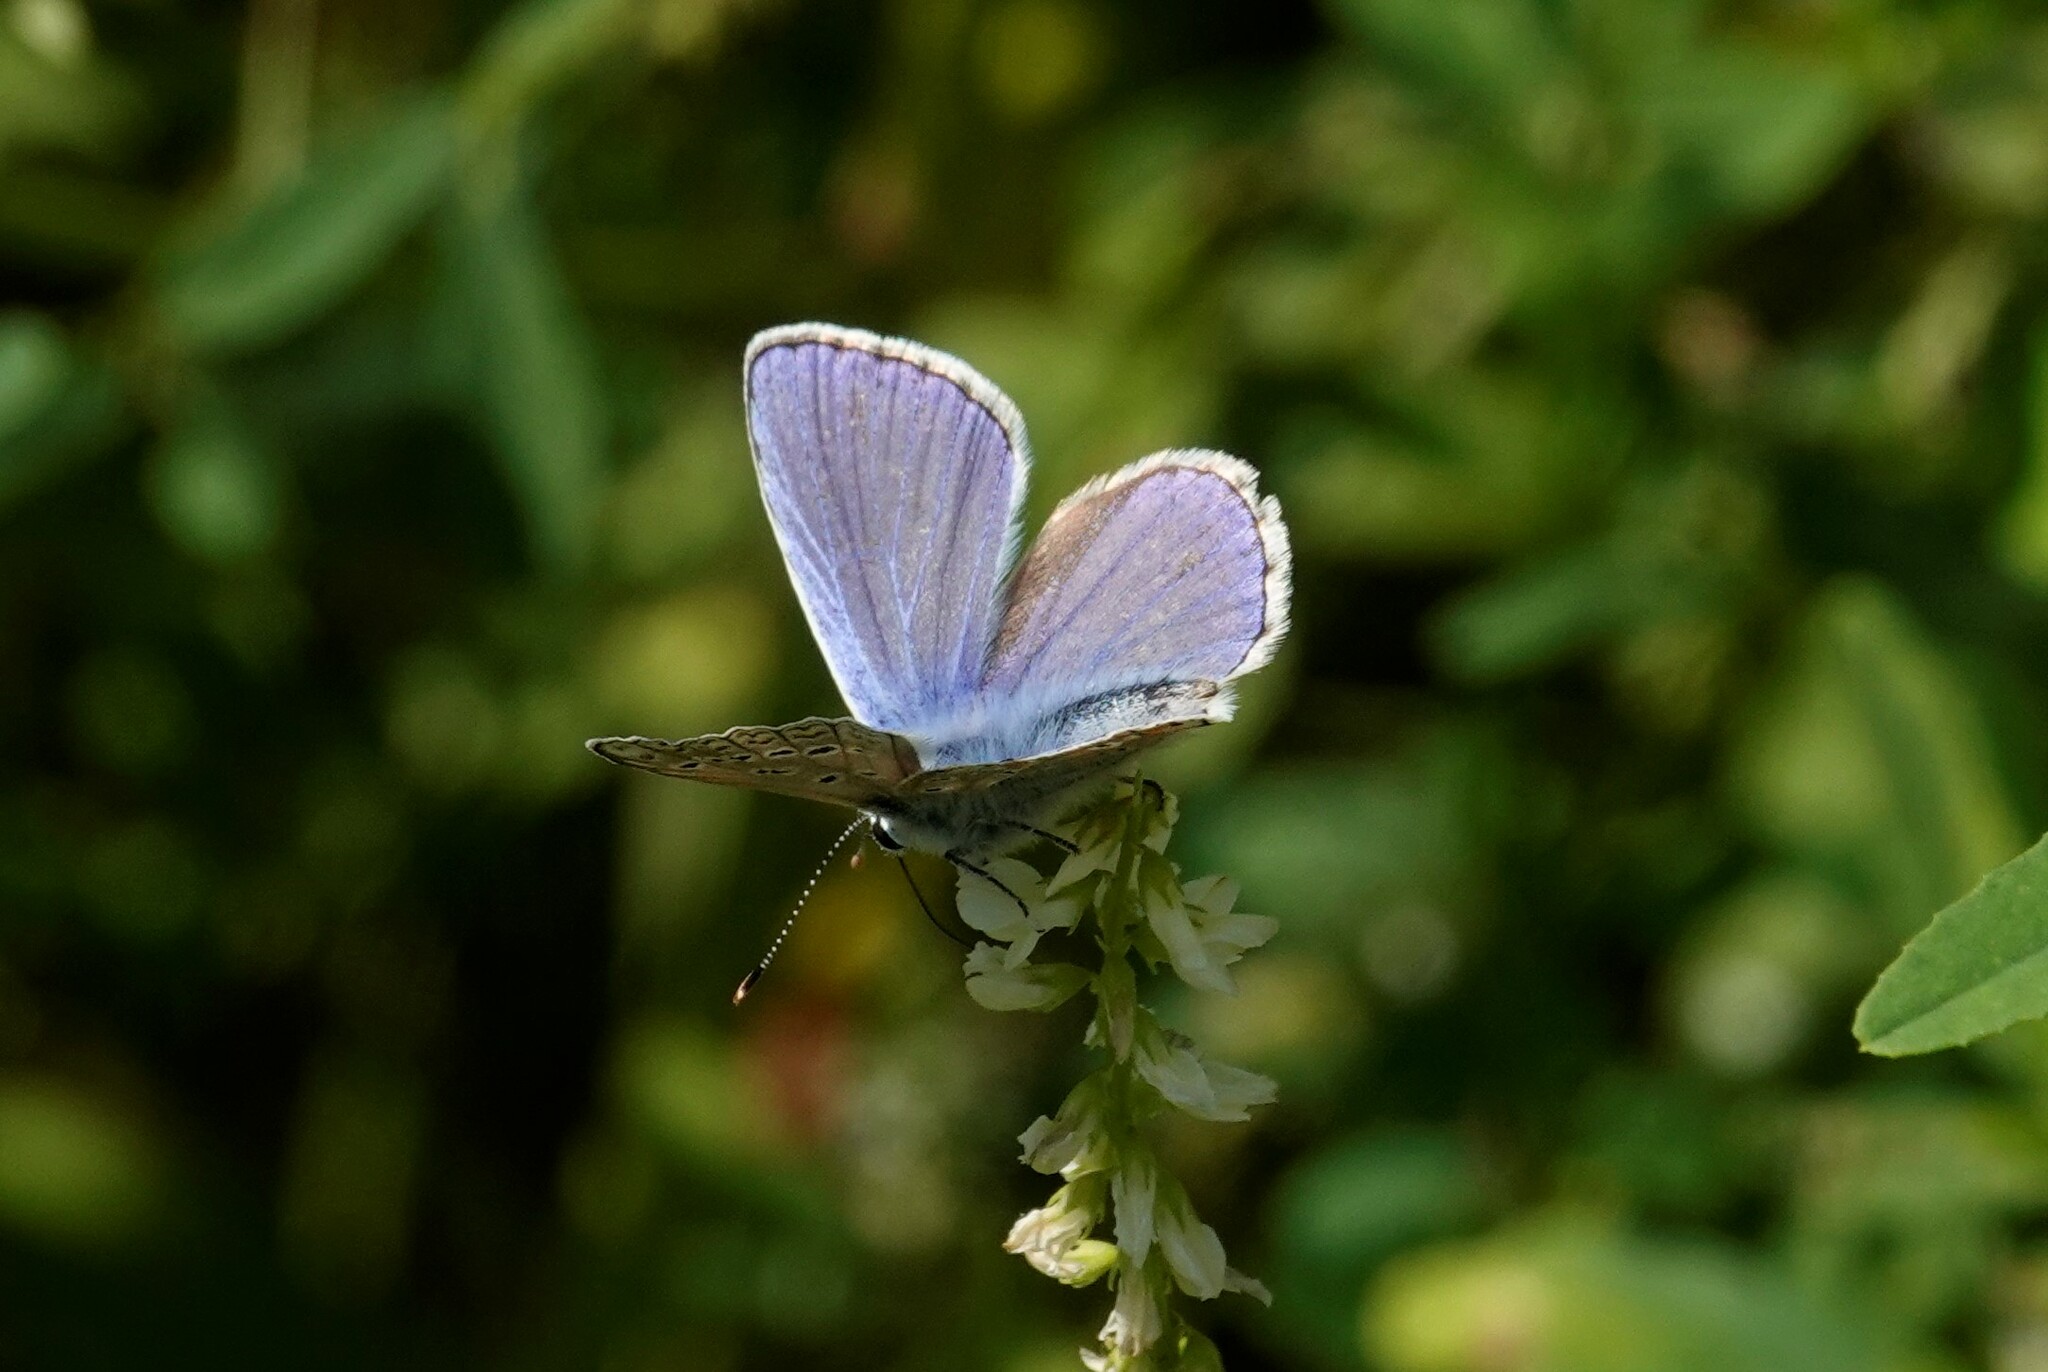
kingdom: Animalia
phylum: Arthropoda
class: Insecta
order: Lepidoptera
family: Lycaenidae
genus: Polyommatus
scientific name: Polyommatus icarus
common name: Common blue
